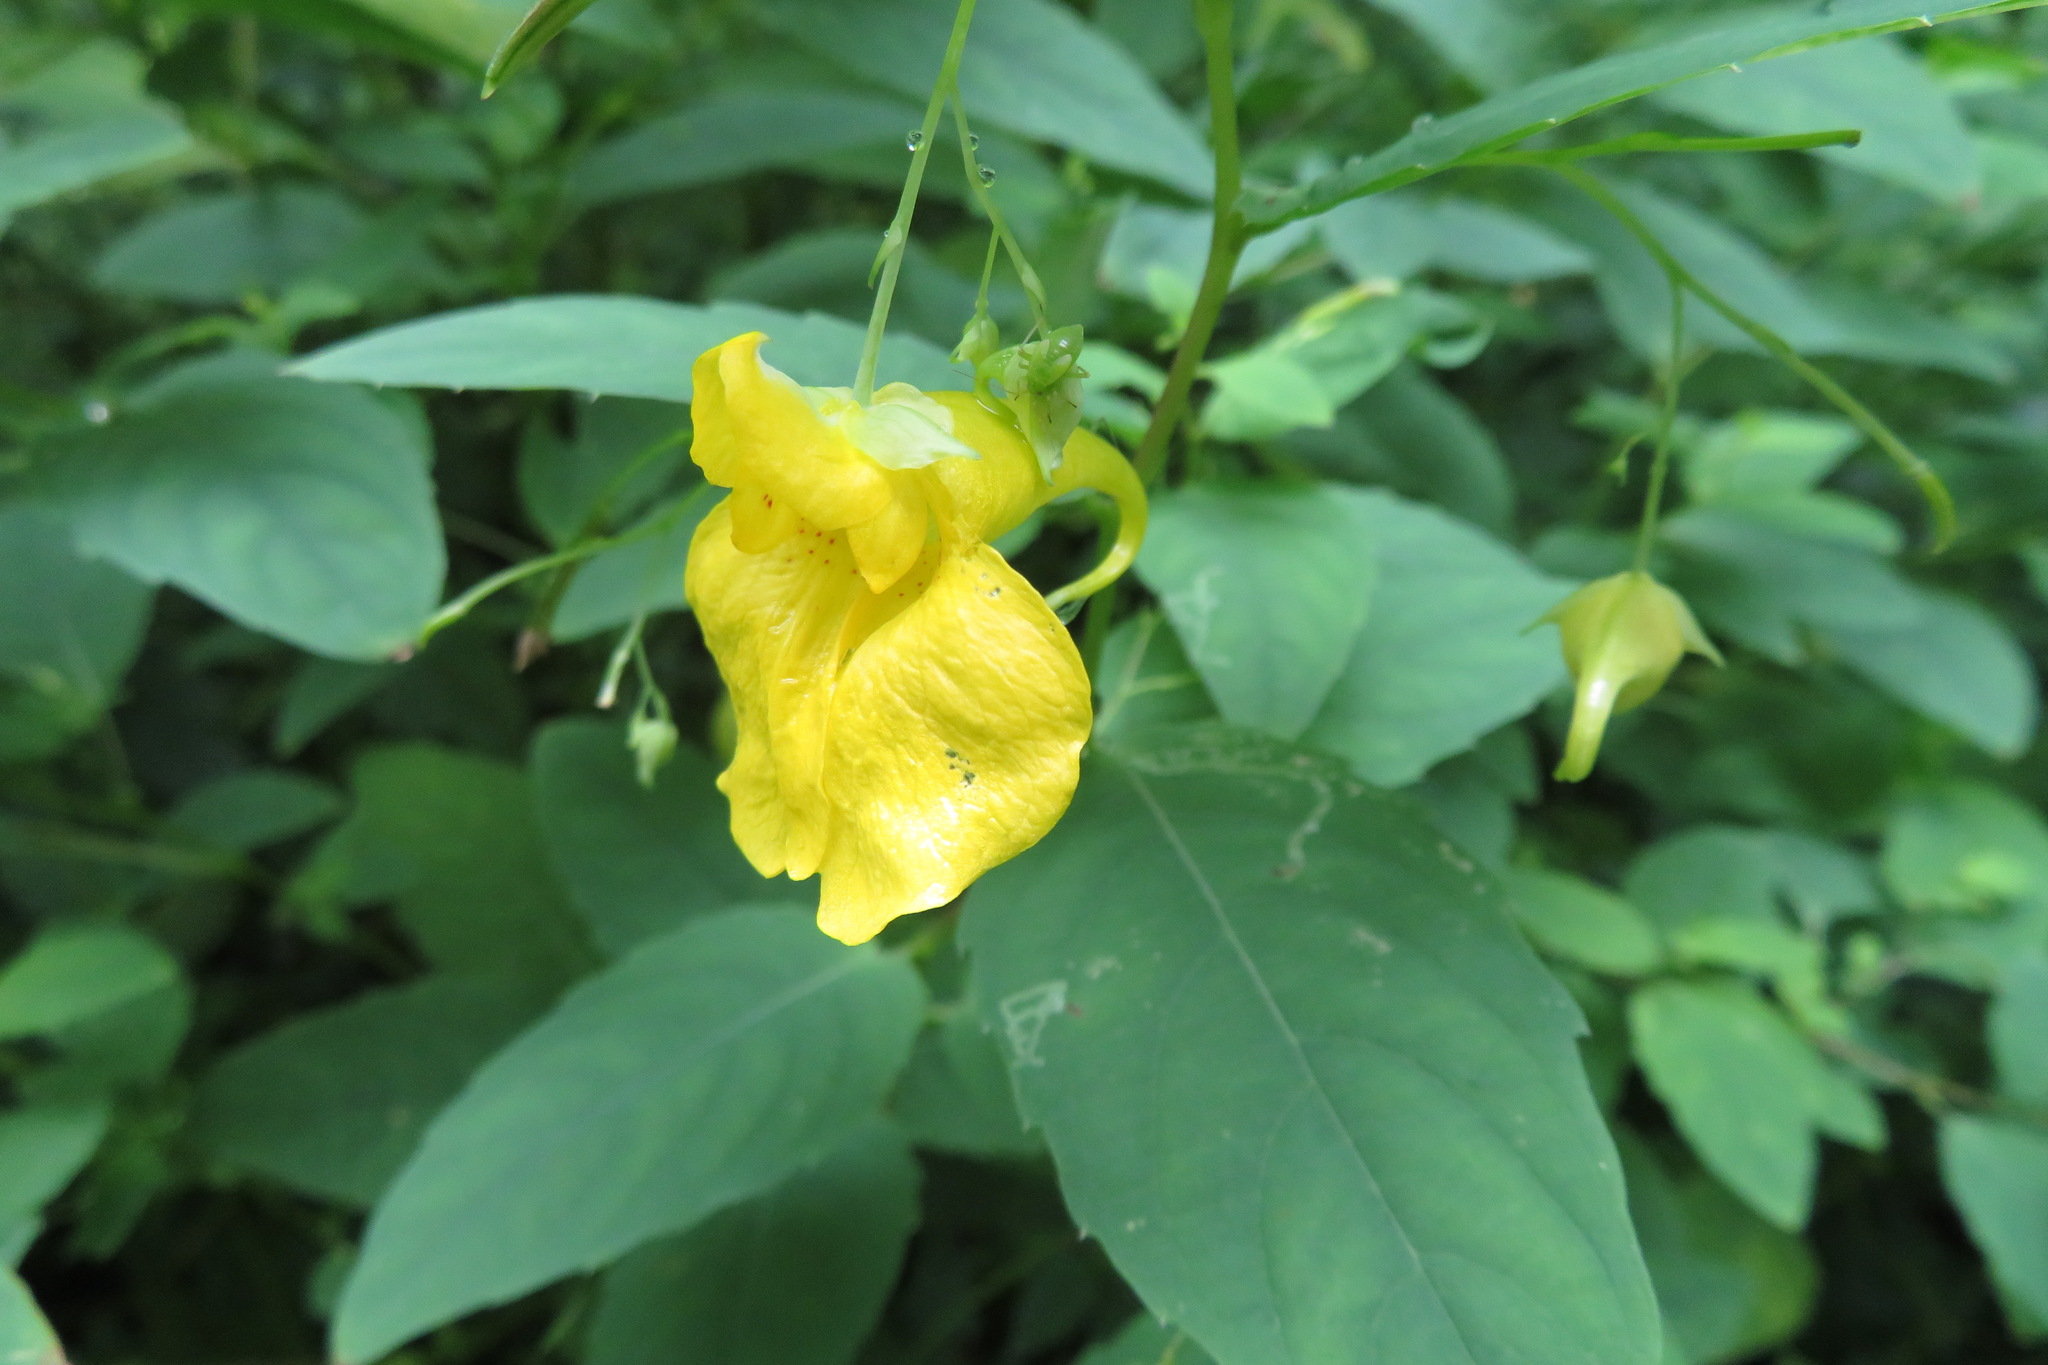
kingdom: Plantae
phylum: Tracheophyta
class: Magnoliopsida
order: Ericales
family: Balsaminaceae
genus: Impatiens
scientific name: Impatiens noli-tangere
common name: Touch-me-not balsam
